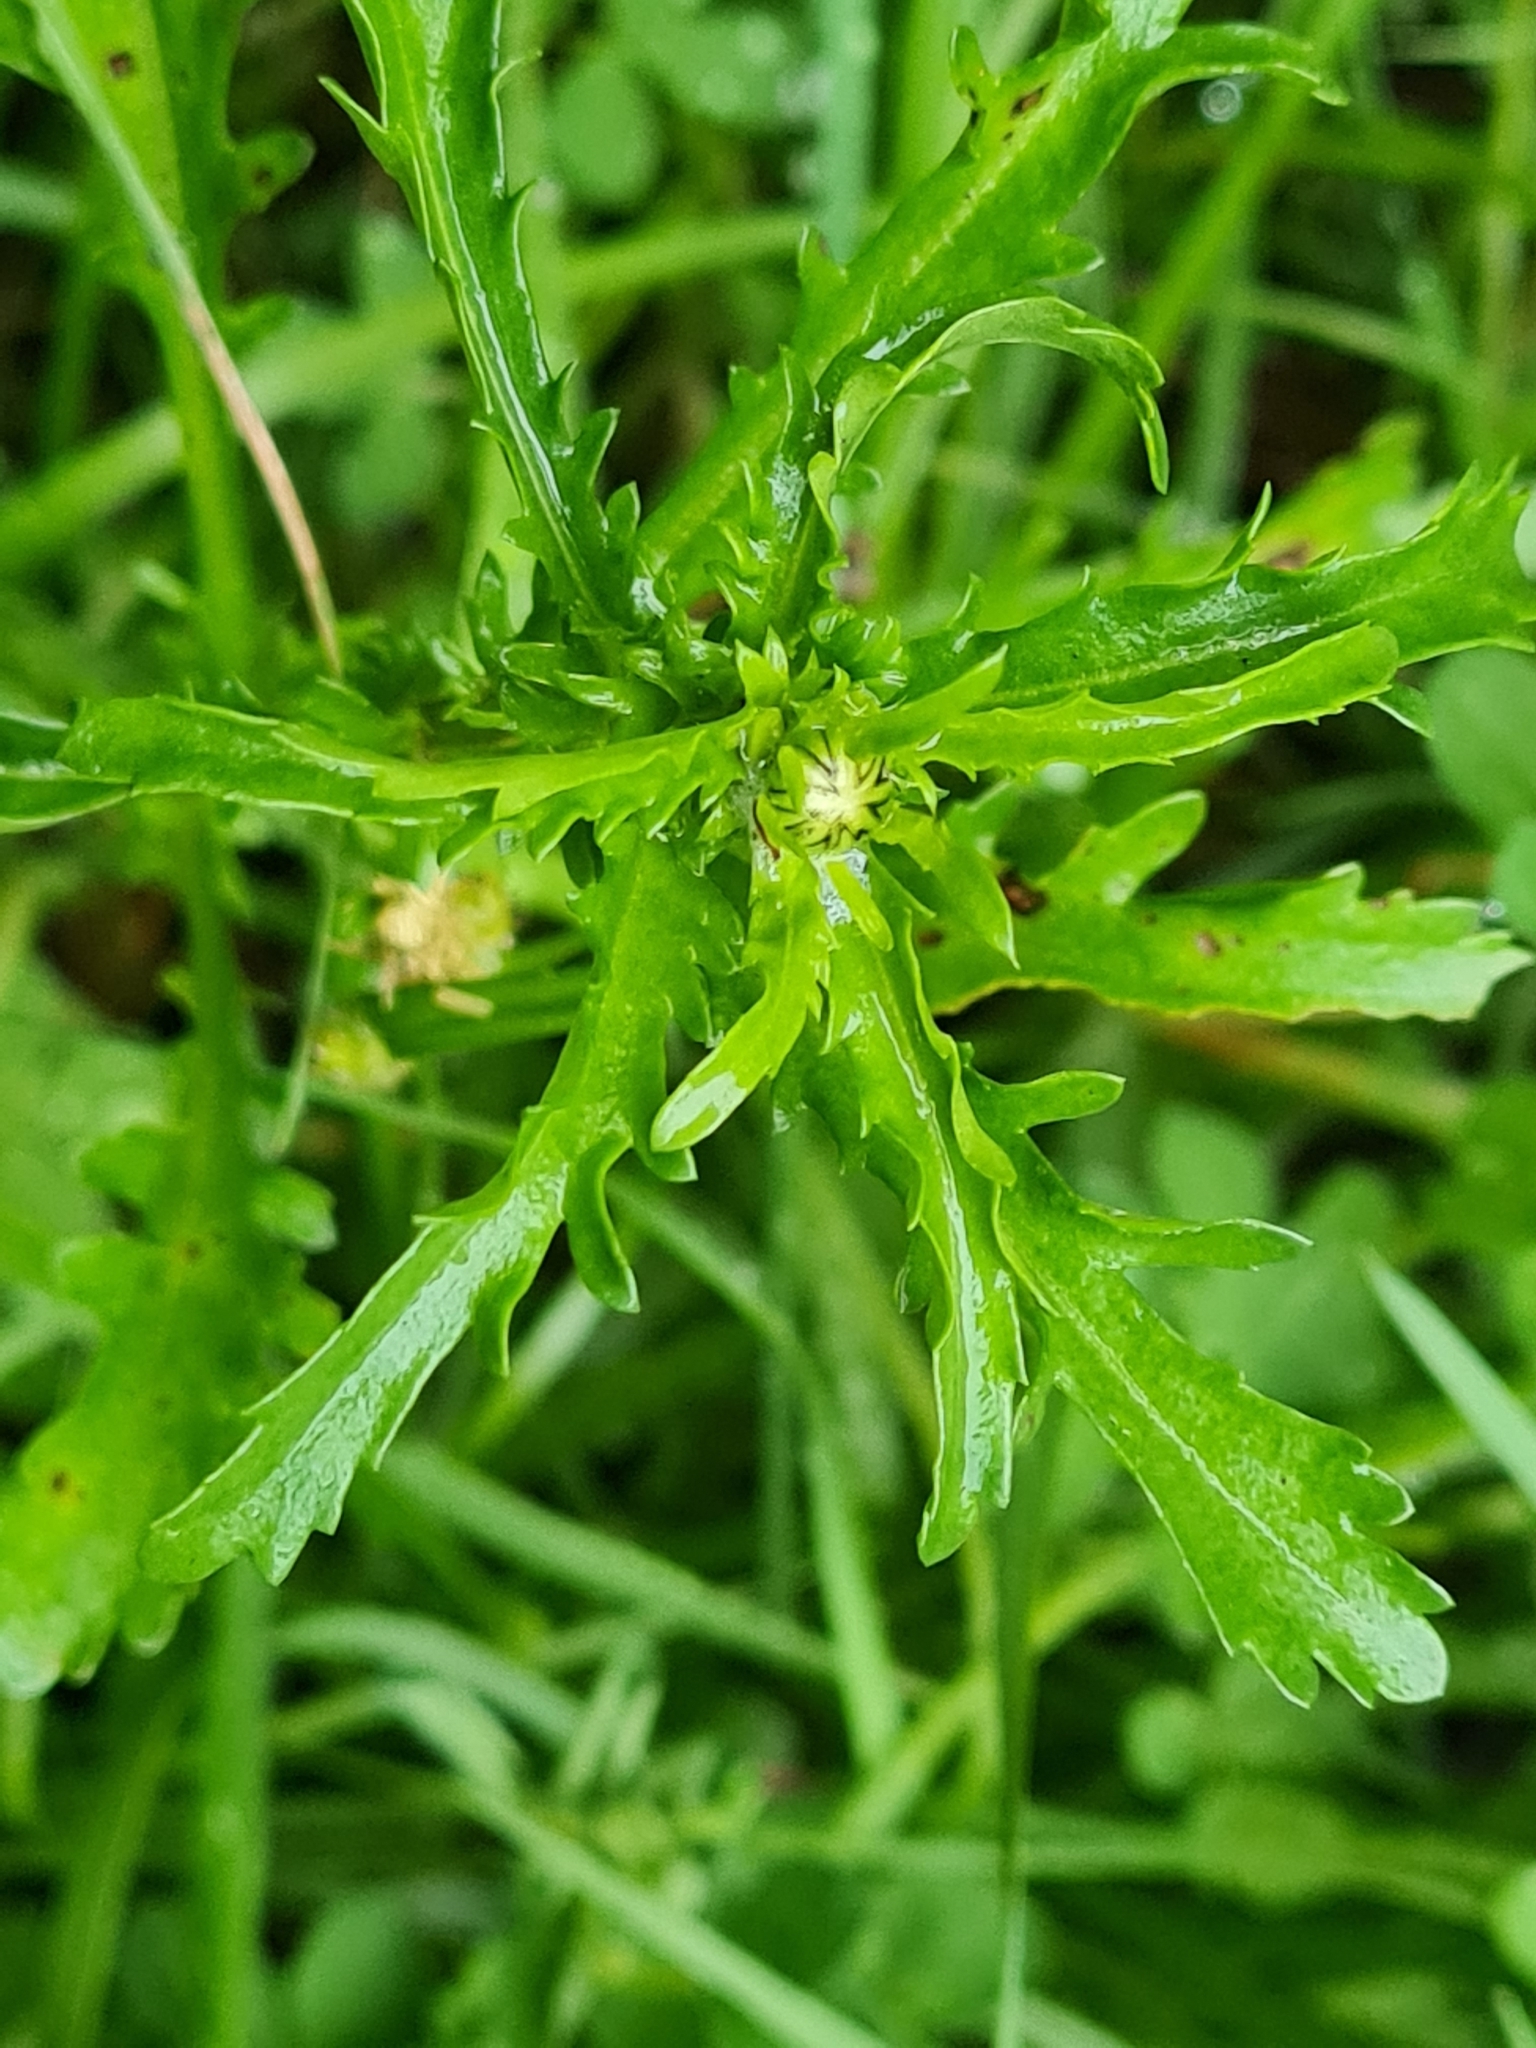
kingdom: Plantae
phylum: Tracheophyta
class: Magnoliopsida
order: Asterales
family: Asteraceae
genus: Leucanthemum
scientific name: Leucanthemum vulgare
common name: Oxeye daisy
